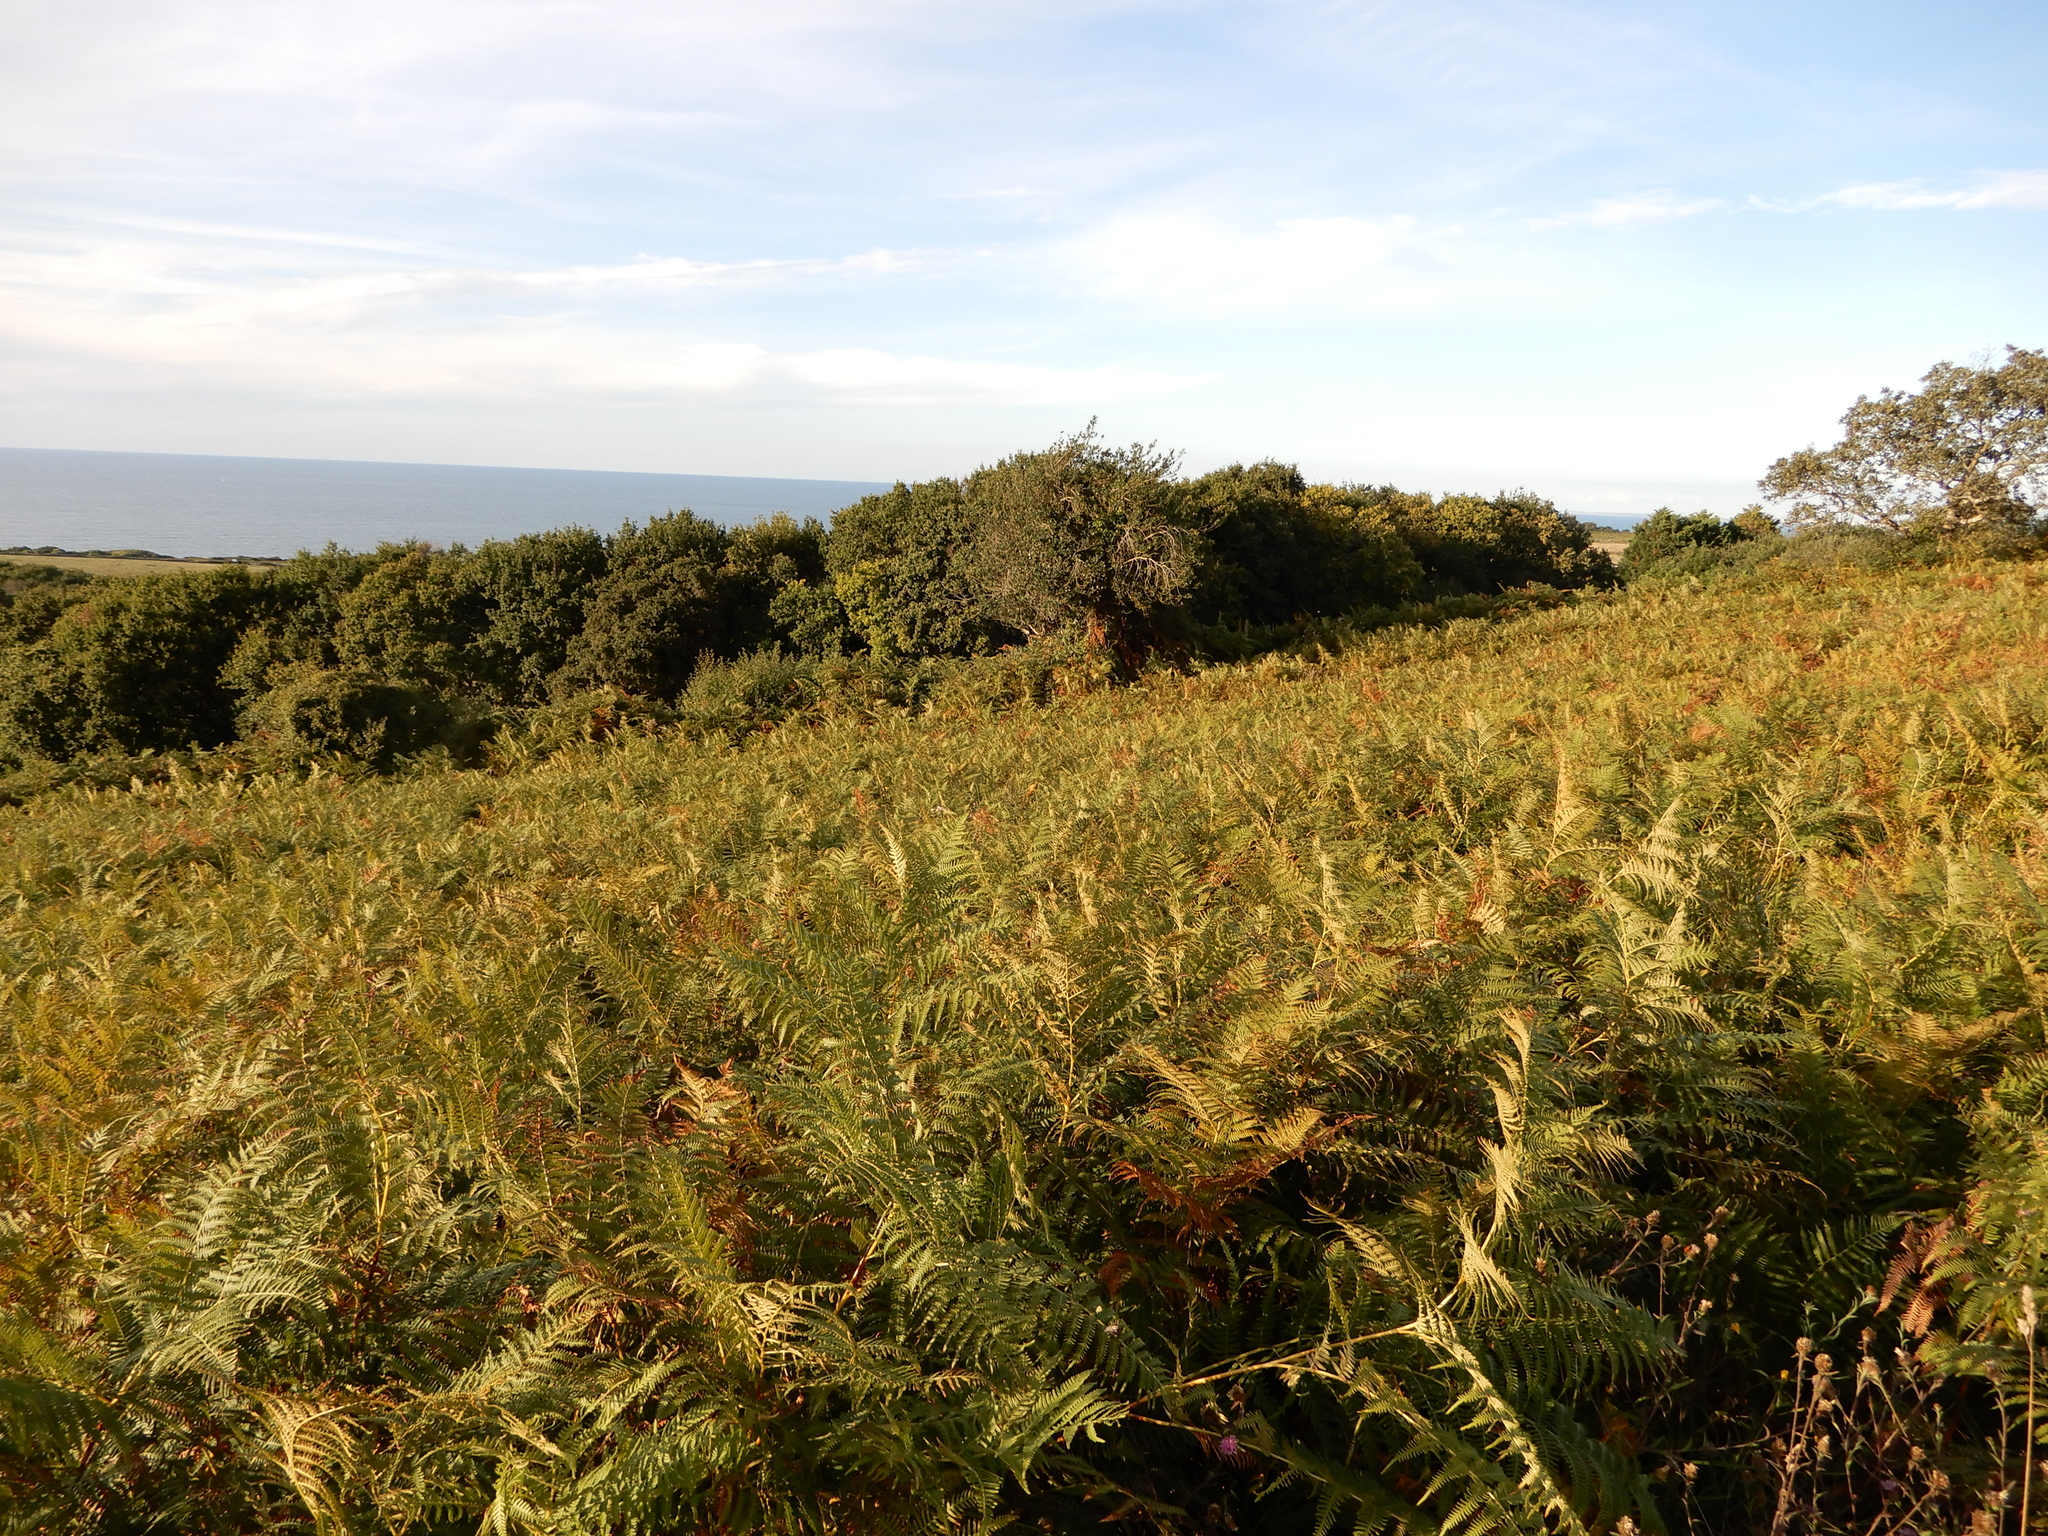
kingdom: Plantae
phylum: Tracheophyta
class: Polypodiopsida
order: Polypodiales
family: Dennstaedtiaceae
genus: Pteridium
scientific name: Pteridium aquilinum
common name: Bracken
